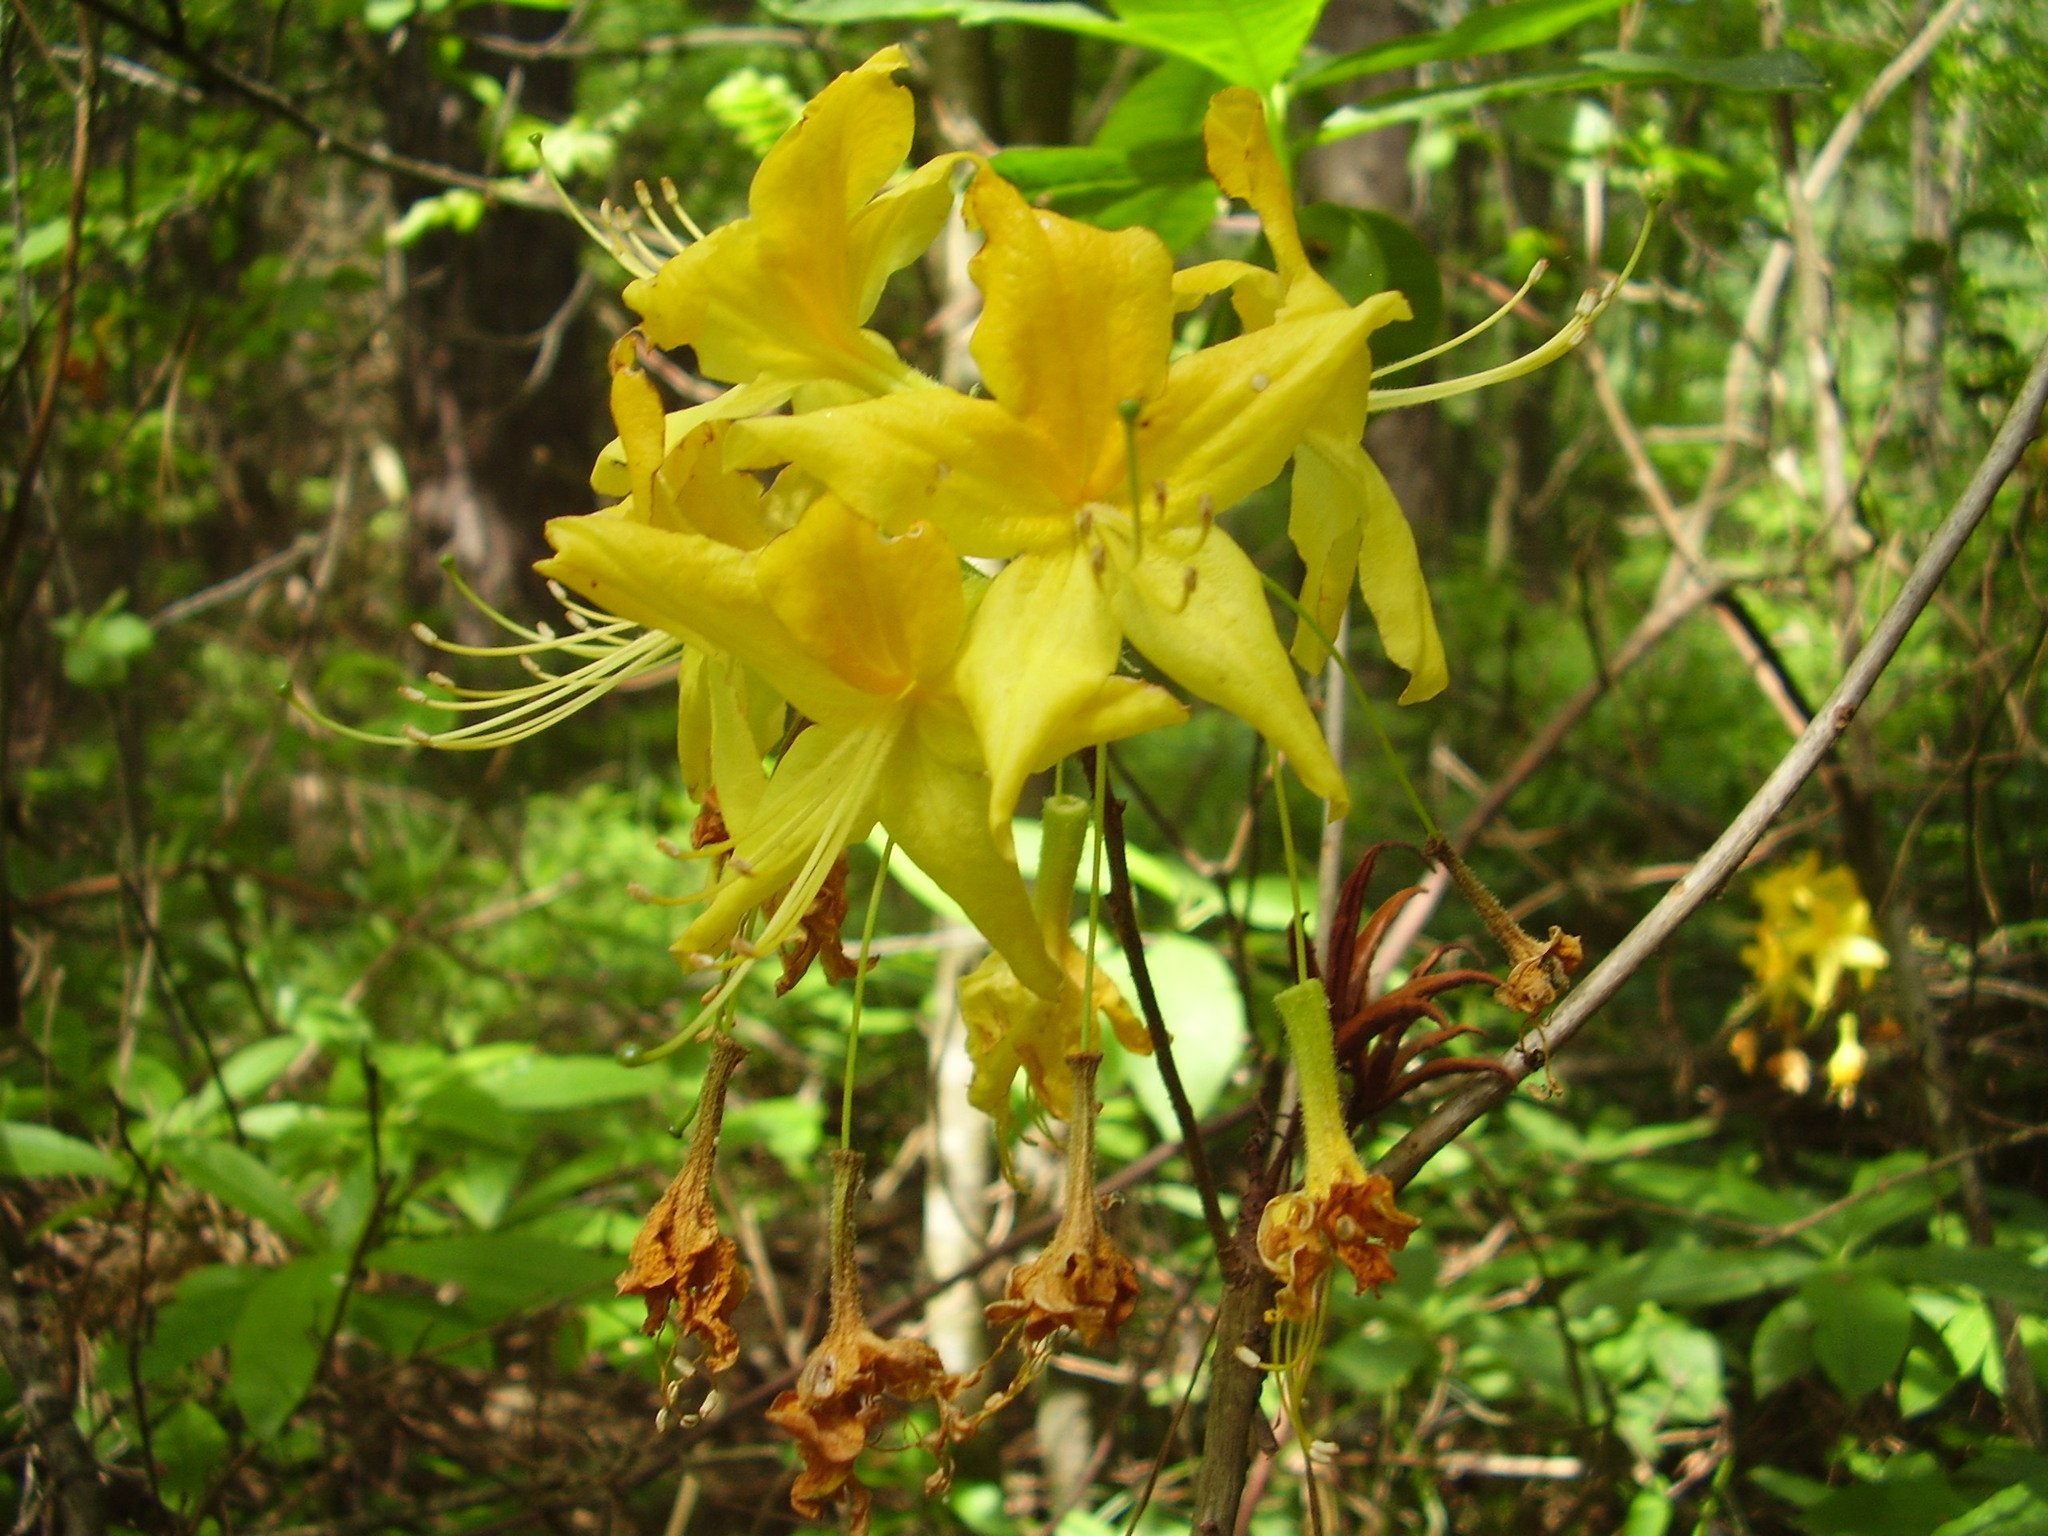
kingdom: Plantae
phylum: Tracheophyta
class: Magnoliopsida
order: Ericales
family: Ericaceae
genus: Rhododendron
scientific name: Rhododendron luteum
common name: Yellow azalea
